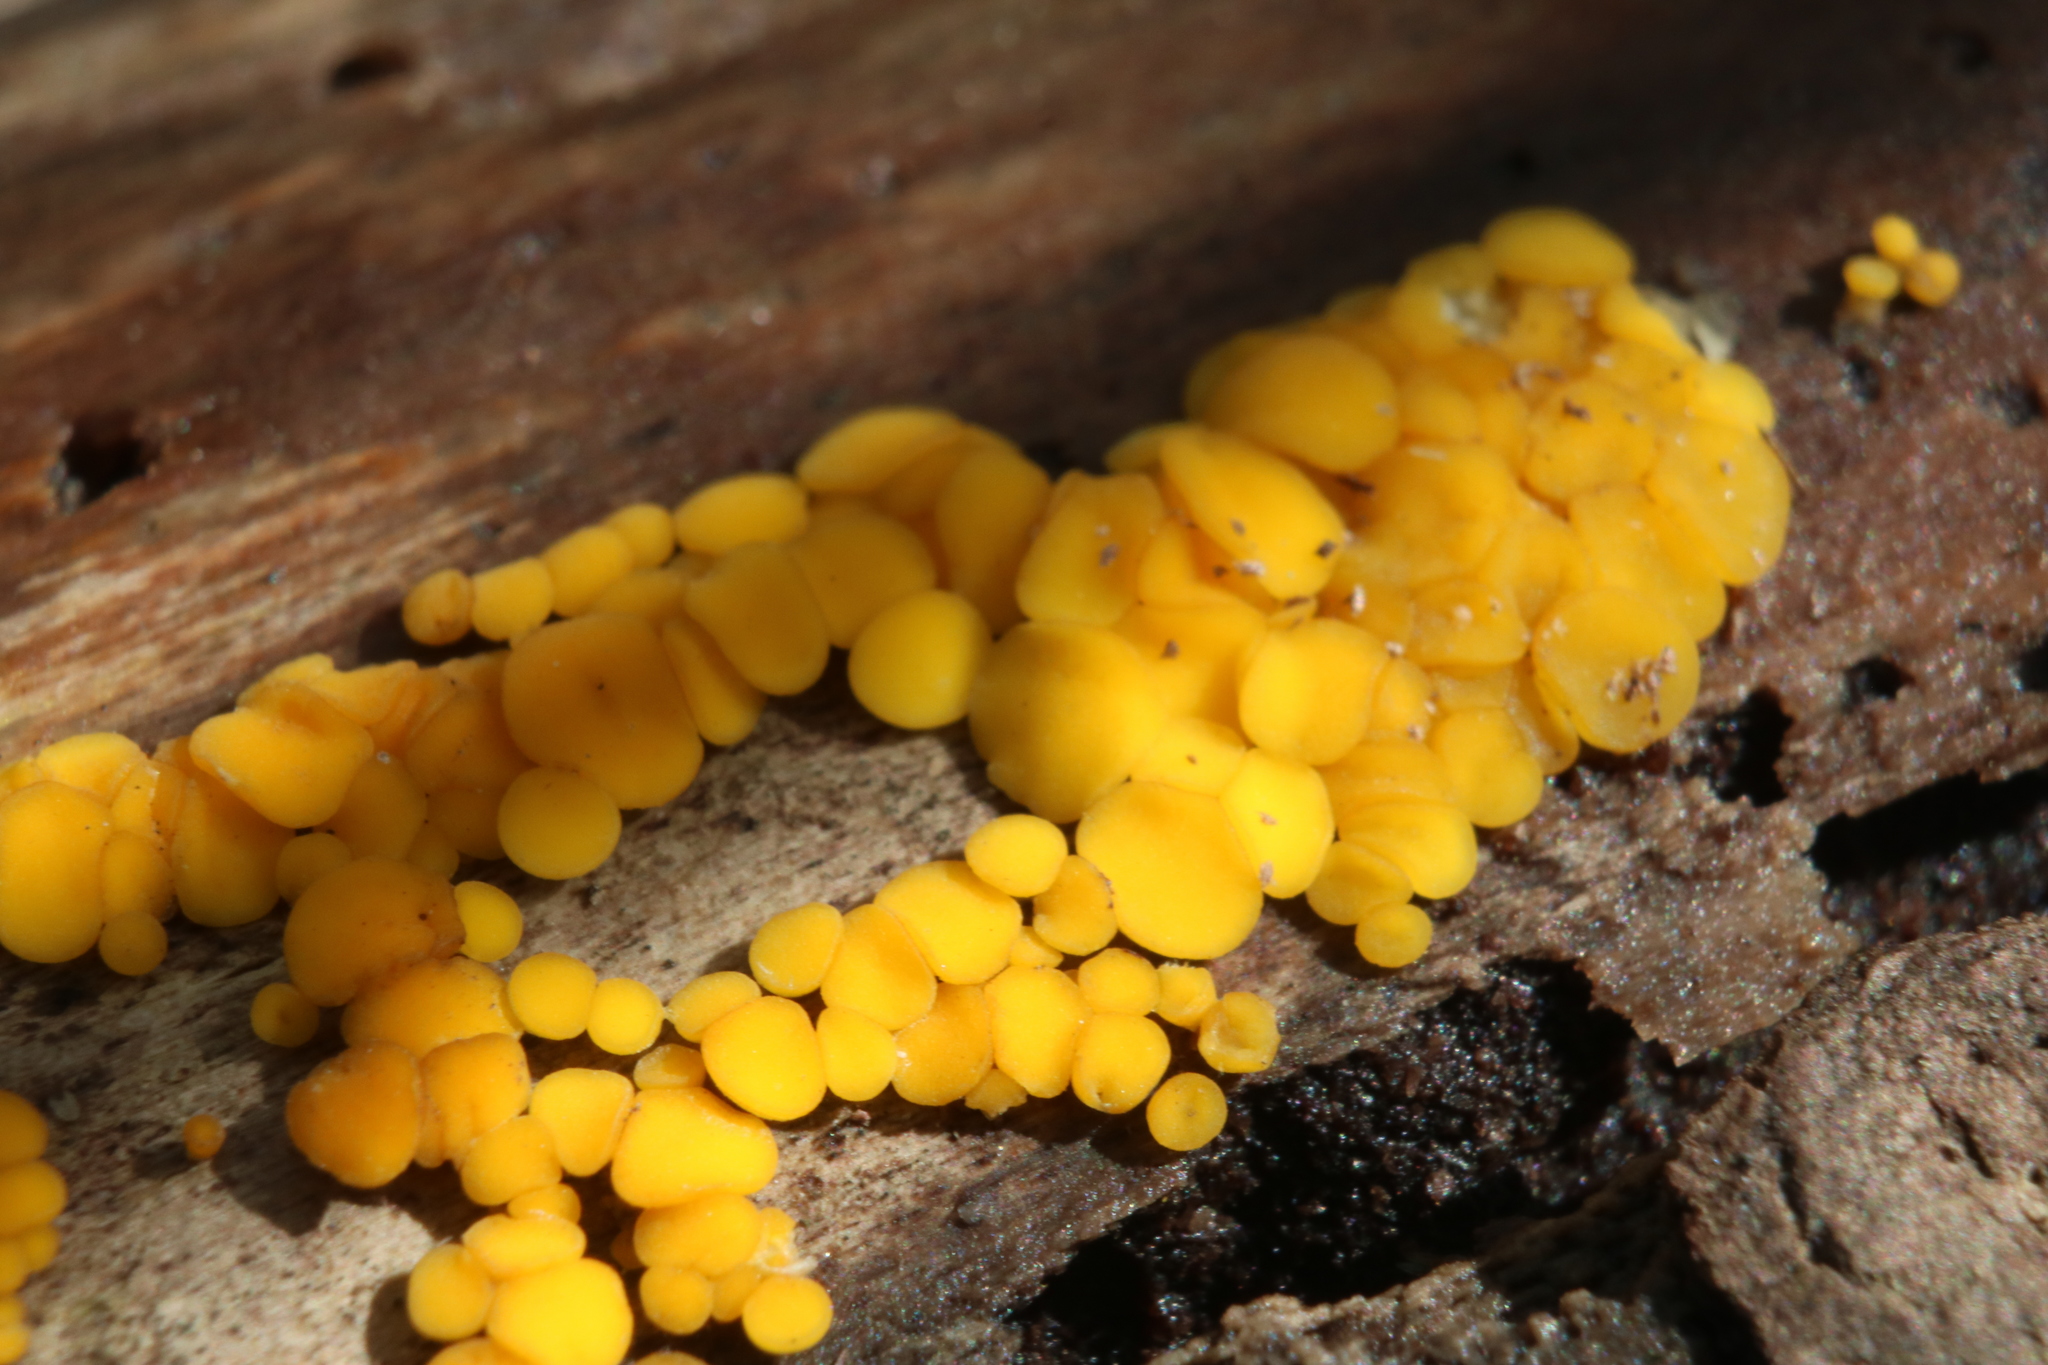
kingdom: Fungi
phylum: Ascomycota
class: Leotiomycetes
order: Helotiales
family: Pezizellaceae
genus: Calycina
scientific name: Calycina citrina
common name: Yellow fairy cups
